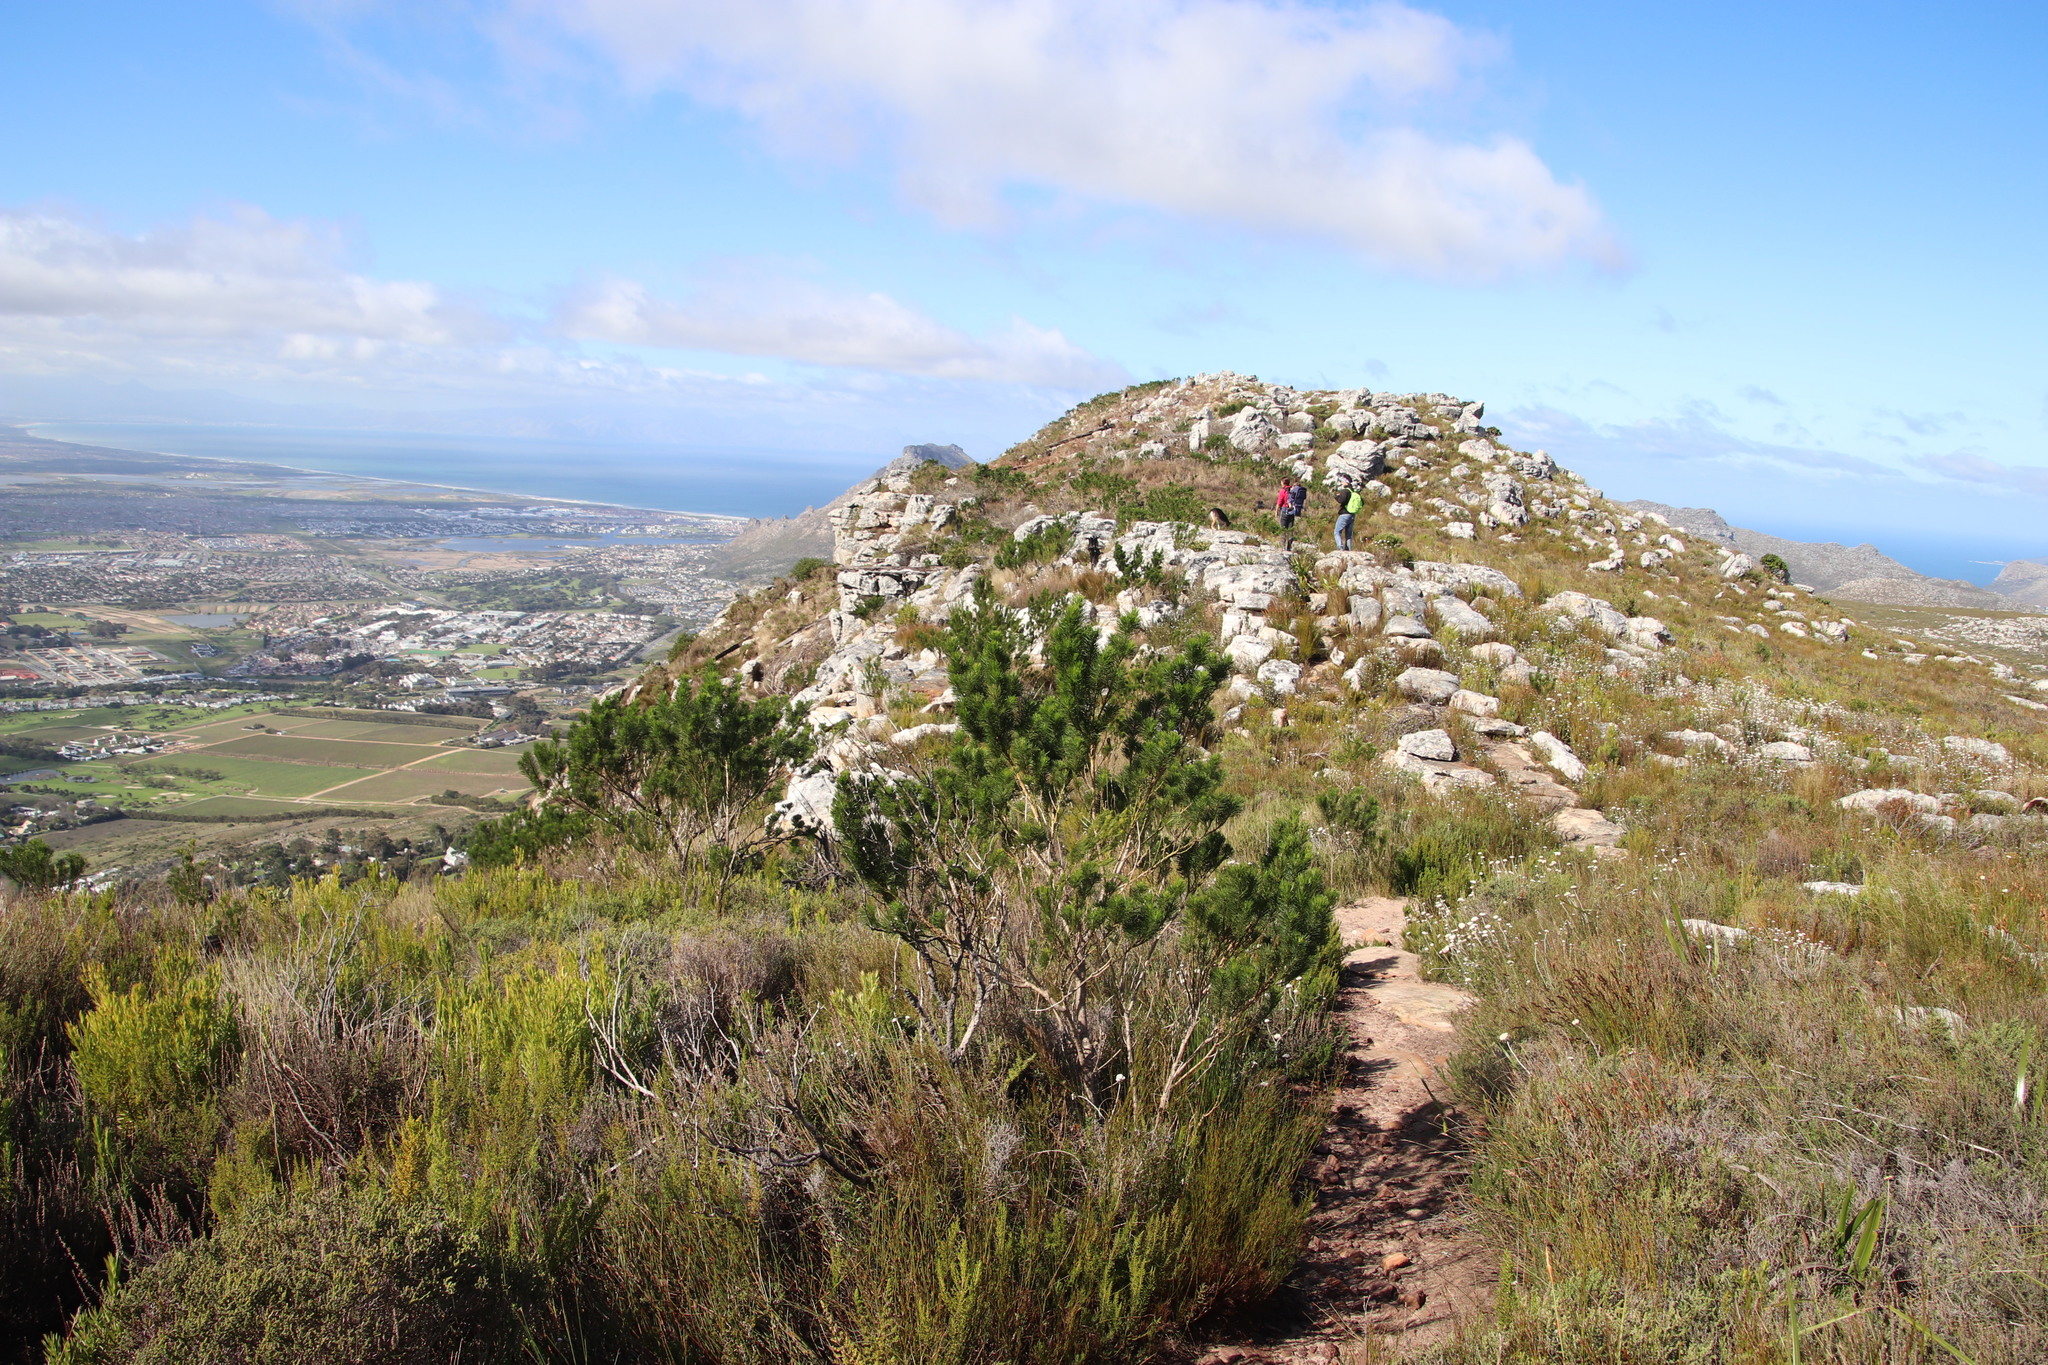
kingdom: Plantae
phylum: Tracheophyta
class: Magnoliopsida
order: Fabales
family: Fabaceae
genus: Psoralea
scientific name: Psoralea pinnata
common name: African scurfpea
